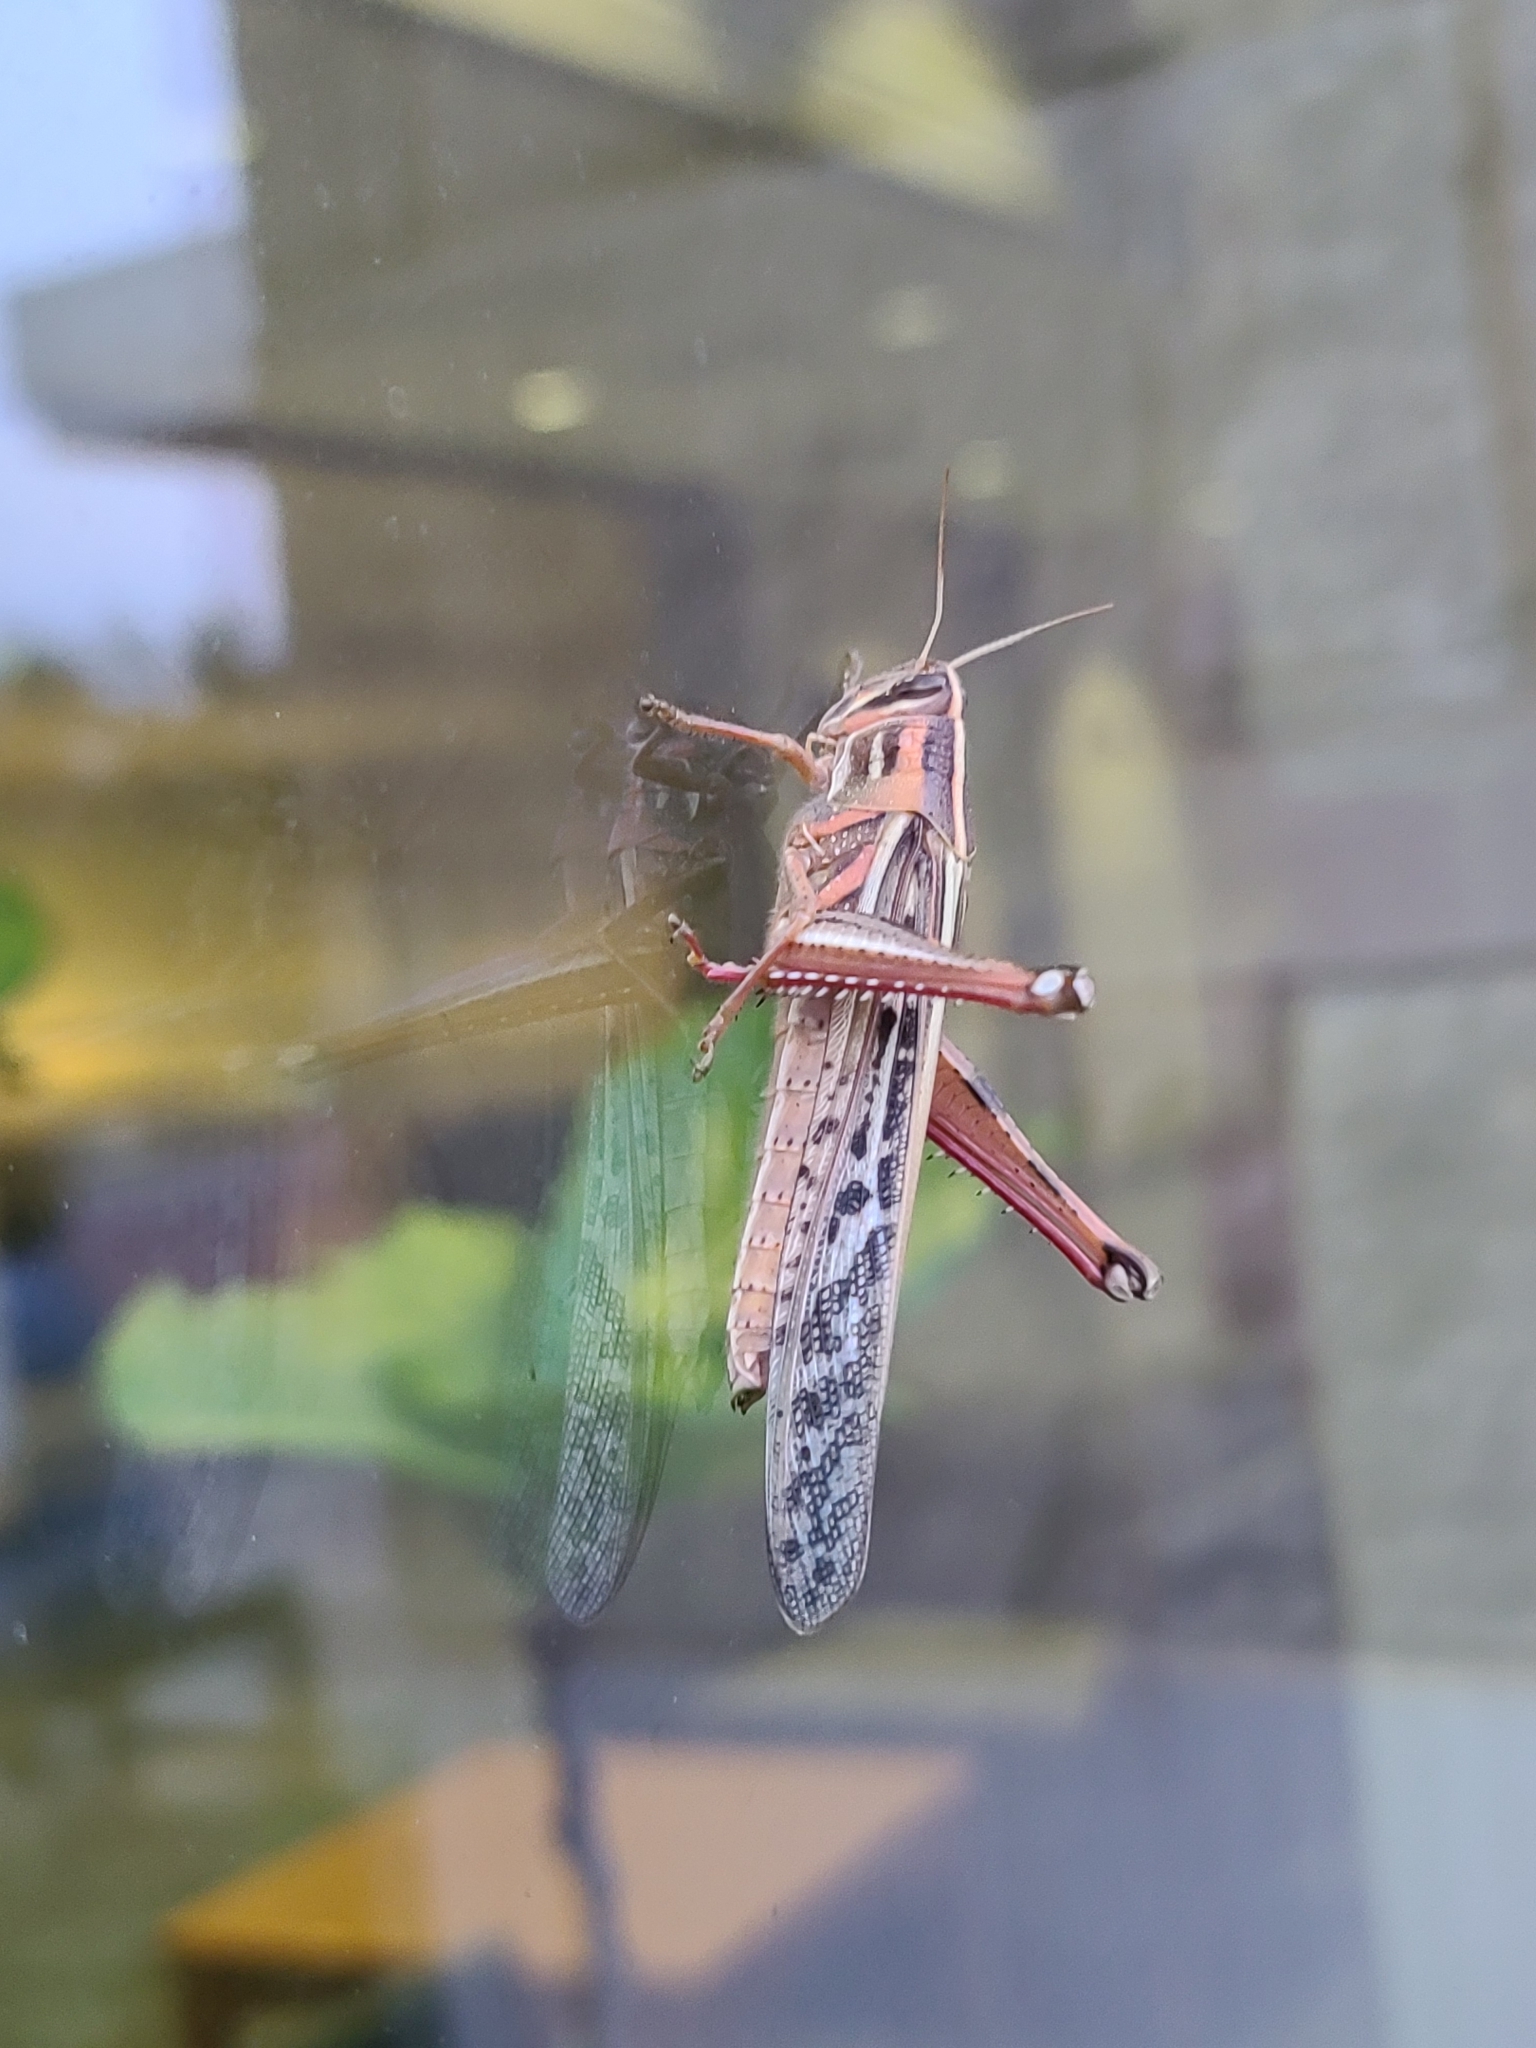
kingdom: Animalia
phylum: Arthropoda
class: Insecta
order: Orthoptera
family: Acrididae
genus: Schistocerca
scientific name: Schistocerca americana
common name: American bird locust
